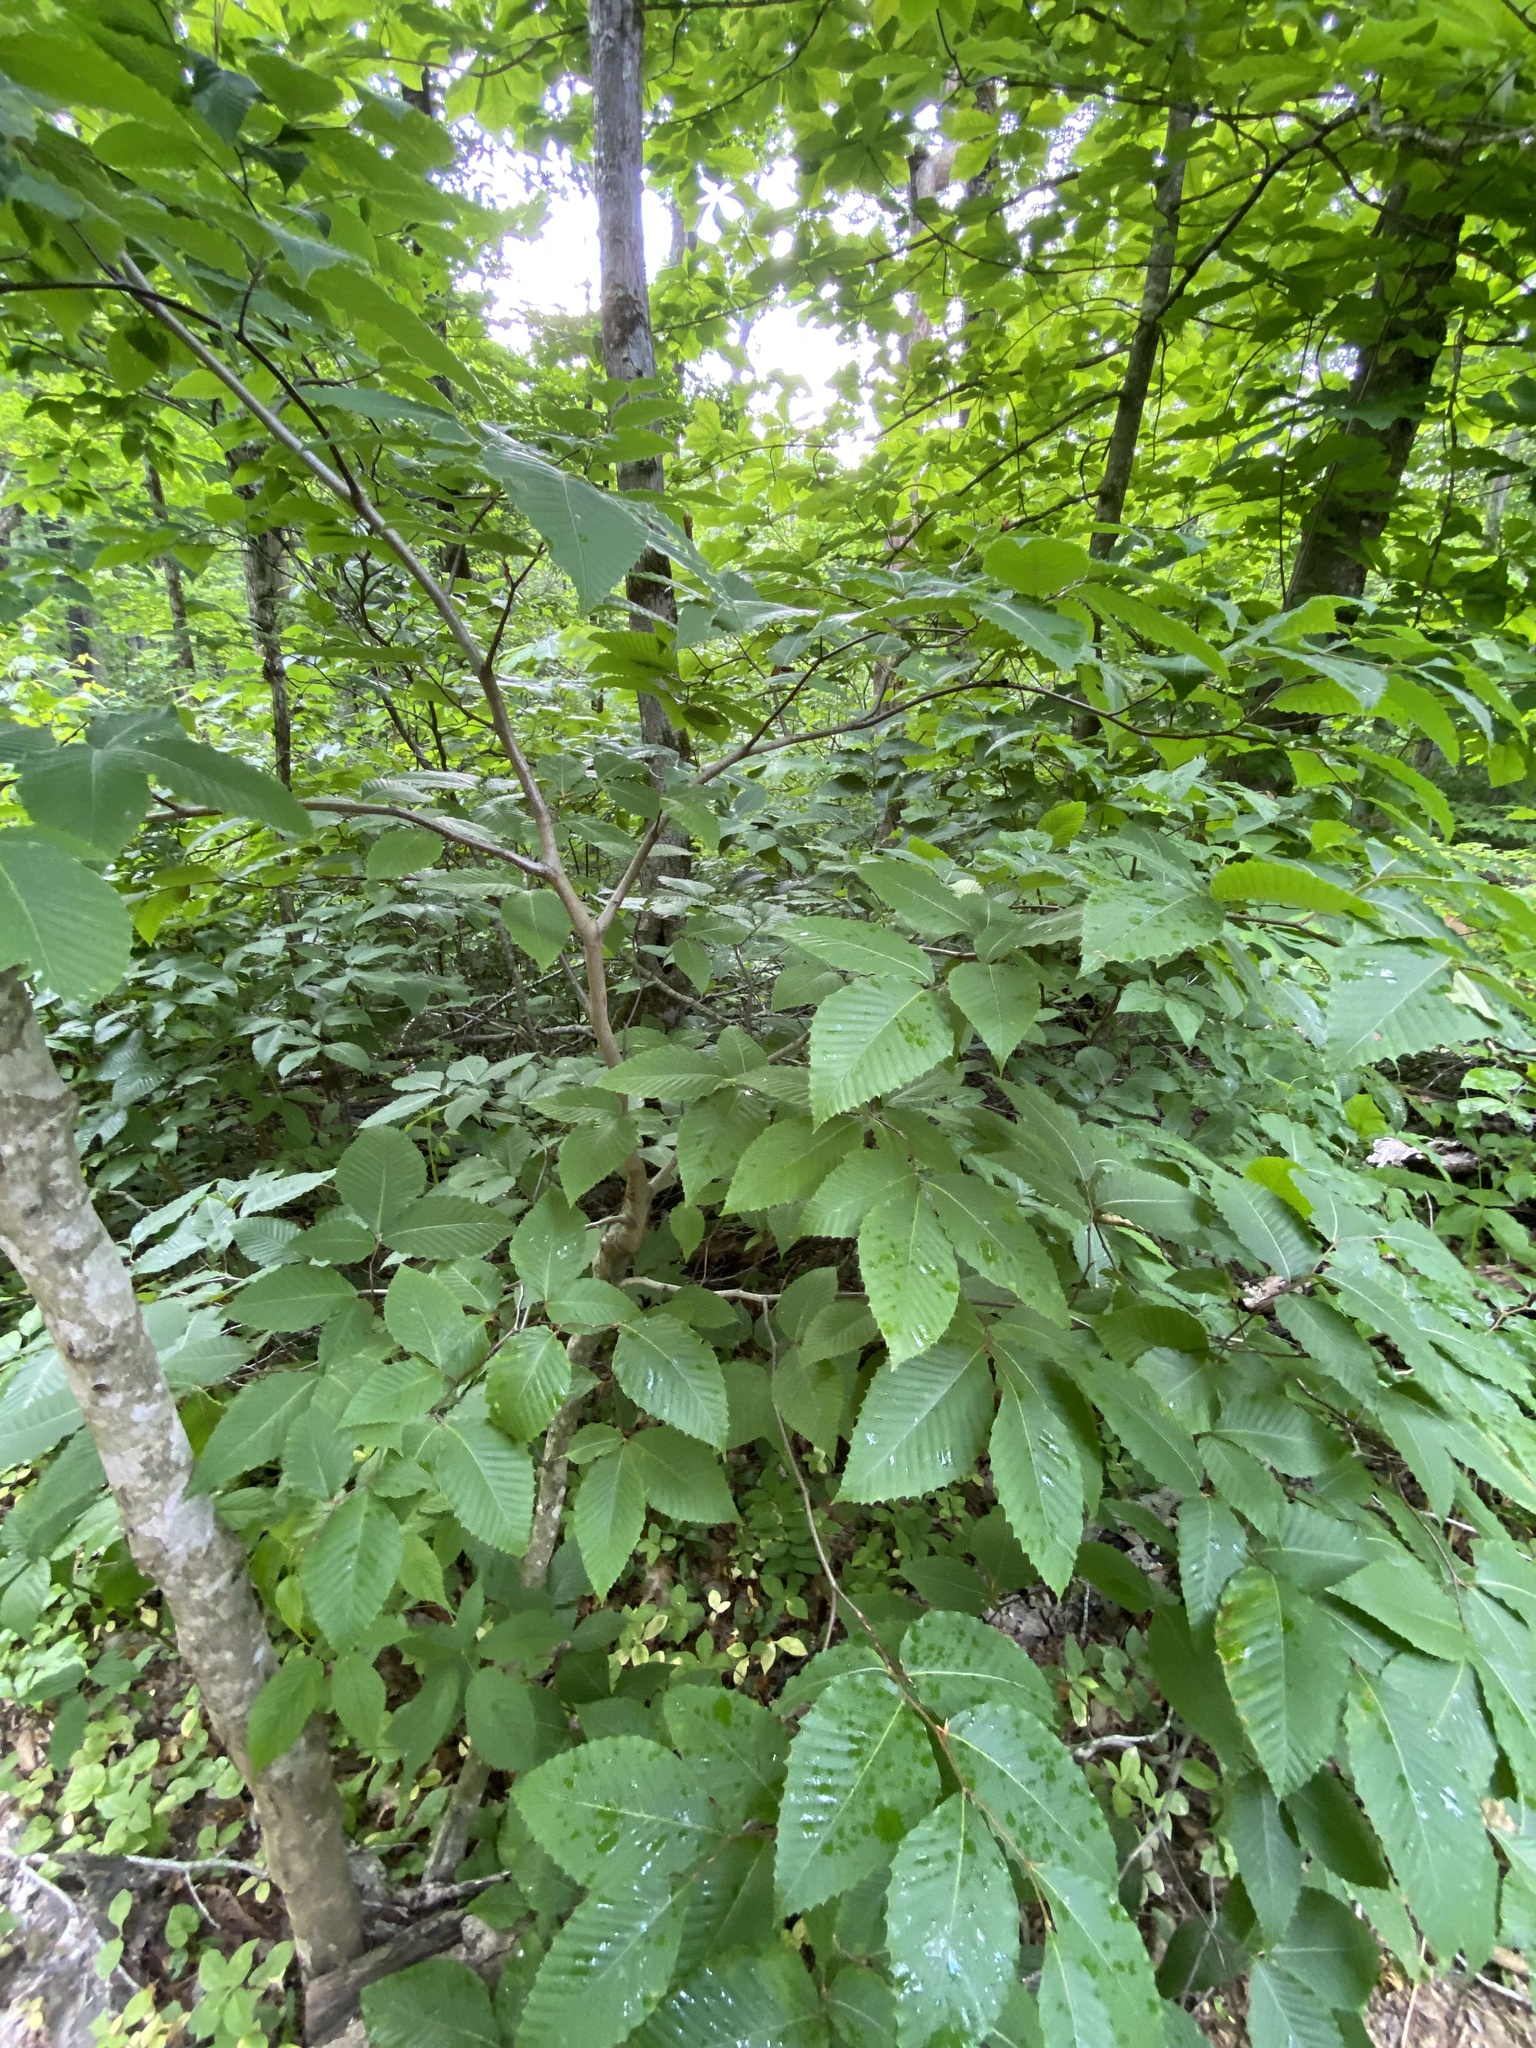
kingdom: Plantae
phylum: Tracheophyta
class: Magnoliopsida
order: Fagales
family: Fagaceae
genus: Fagus
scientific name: Fagus grandifolia
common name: American beech
